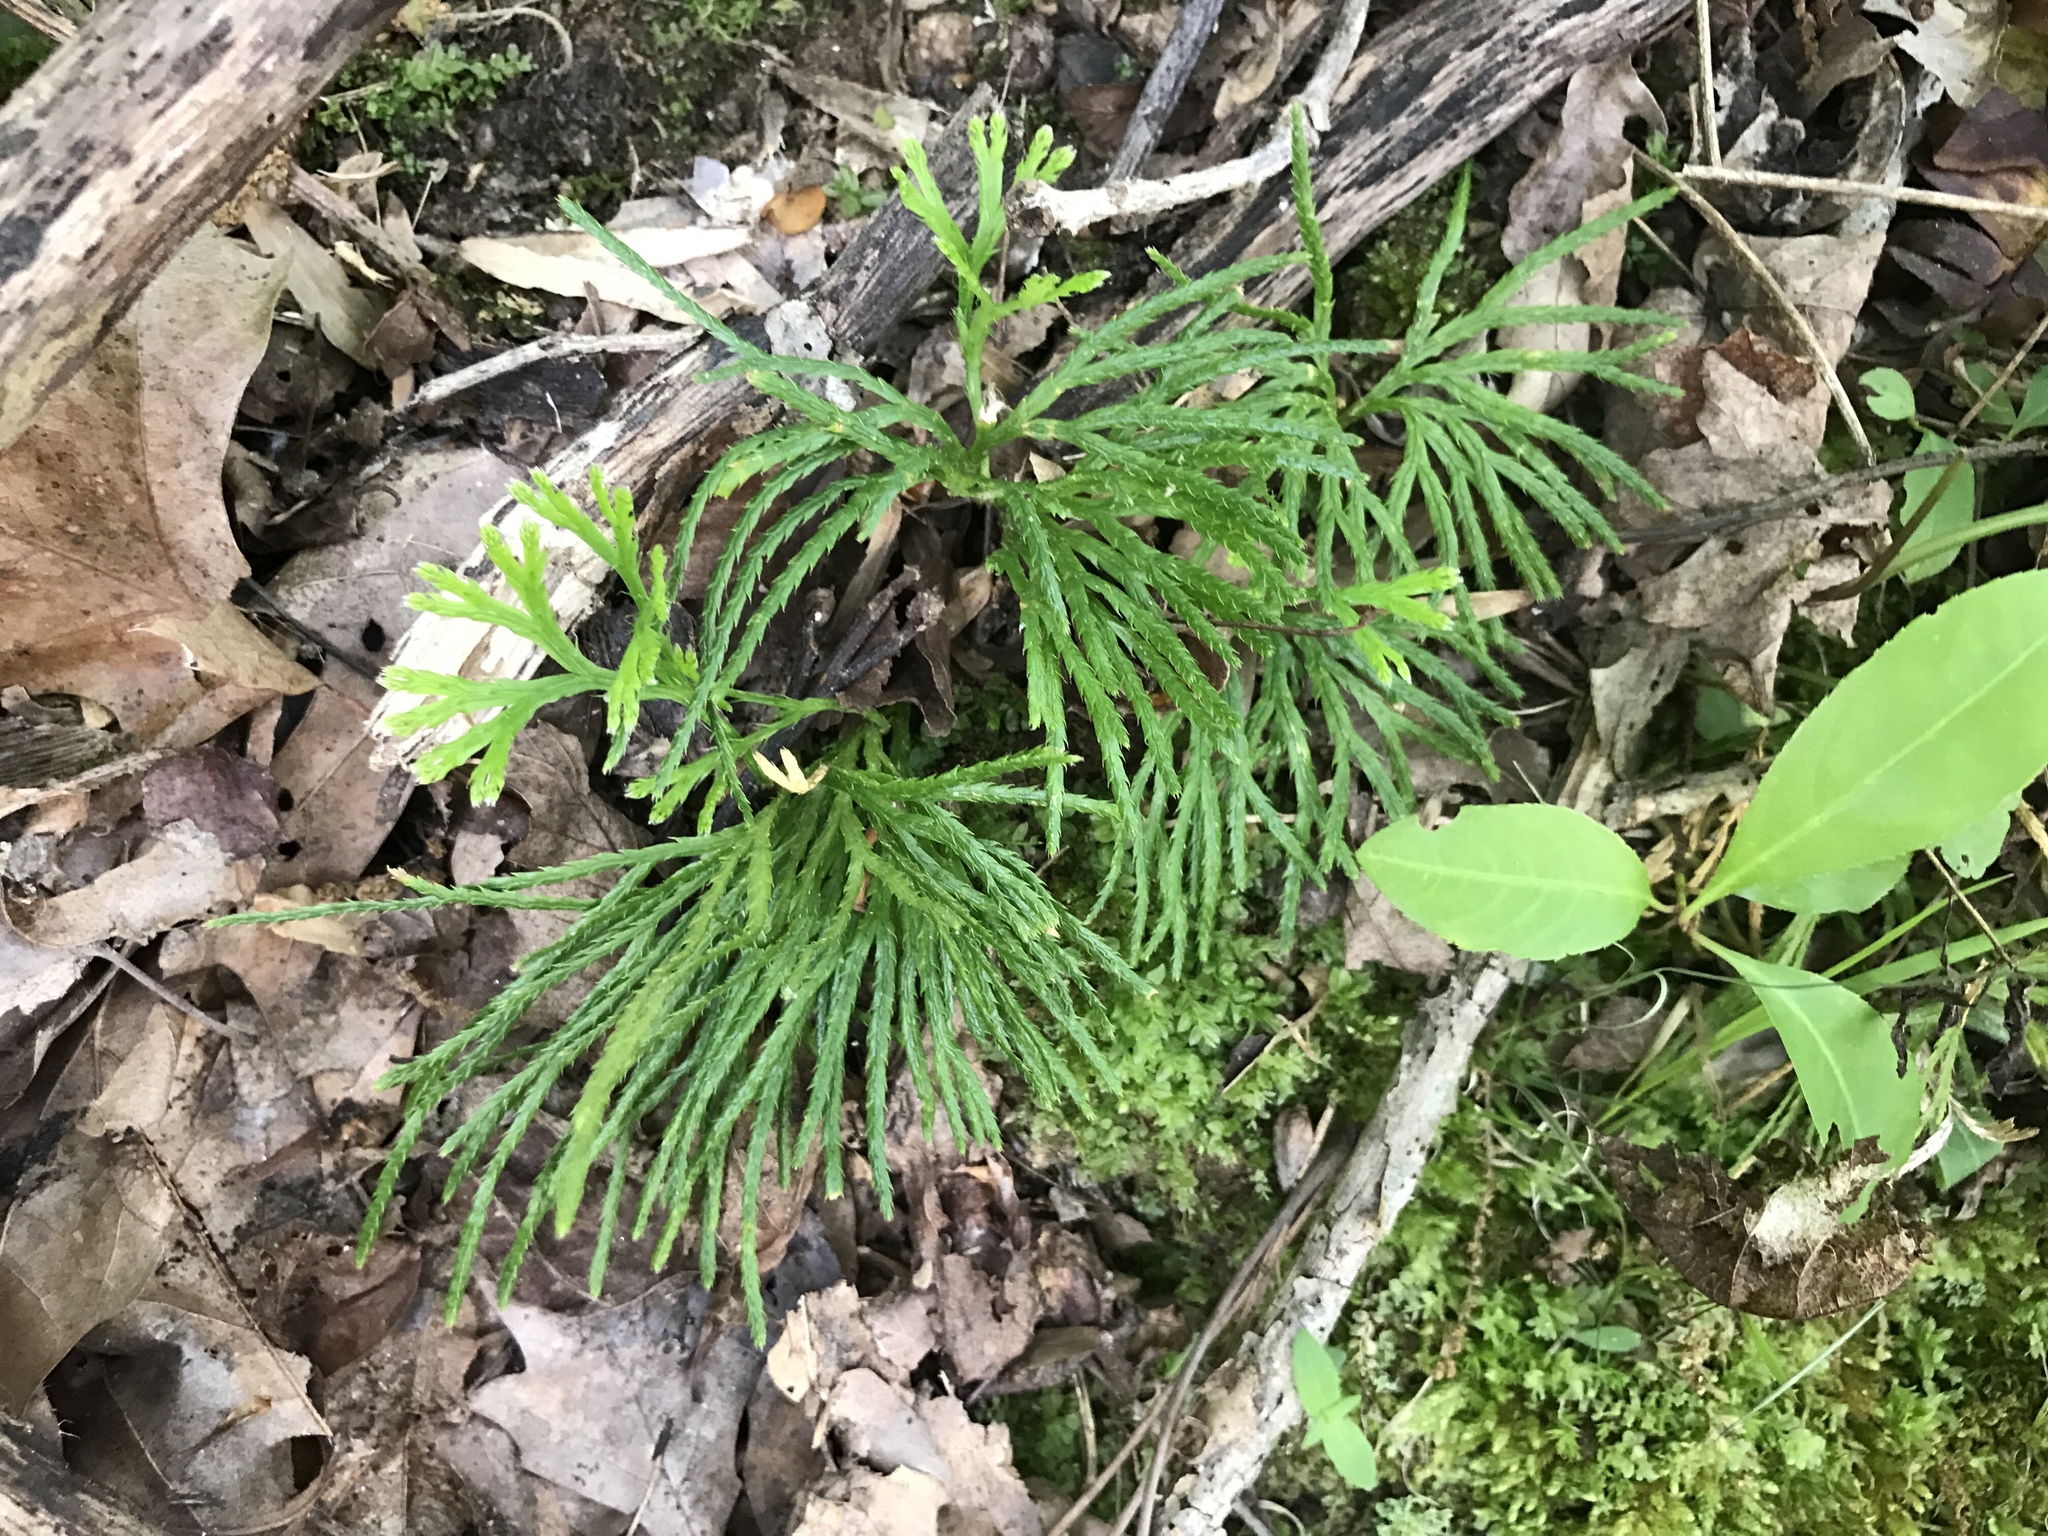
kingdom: Plantae
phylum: Tracheophyta
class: Lycopodiopsida
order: Lycopodiales
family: Lycopodiaceae
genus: Diphasiastrum
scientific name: Diphasiastrum digitatum
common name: Southern running-pine
